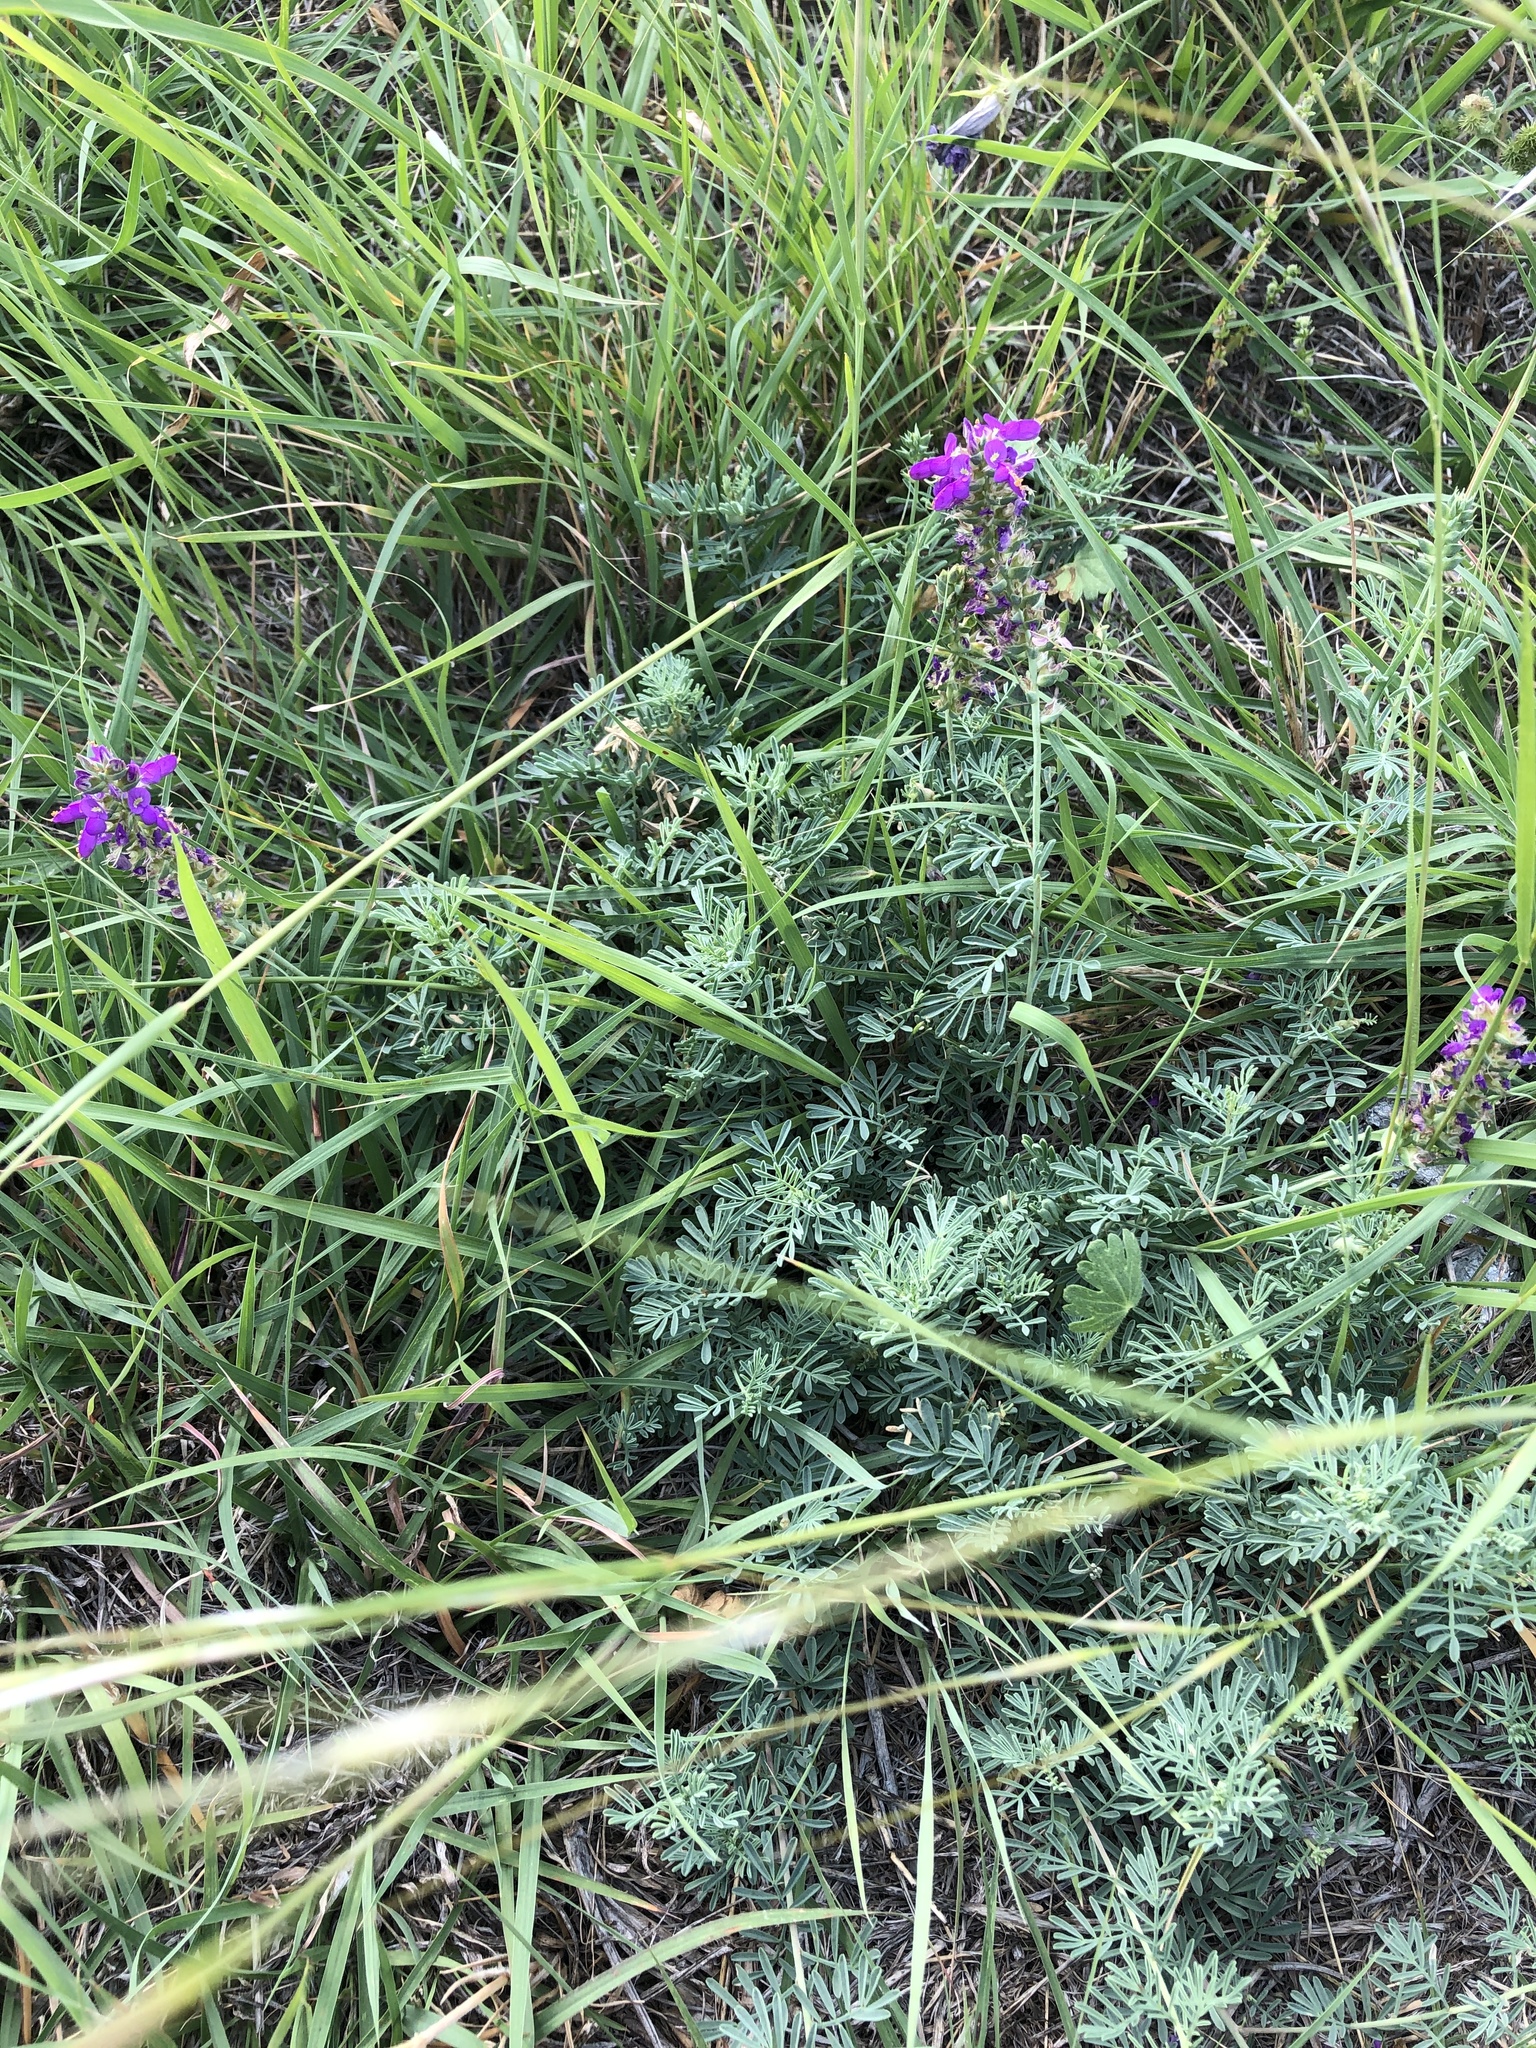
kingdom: Plantae
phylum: Tracheophyta
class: Magnoliopsida
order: Fabales
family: Fabaceae
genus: Dalea
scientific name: Dalea lasiathera
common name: Purple prairie-clover
